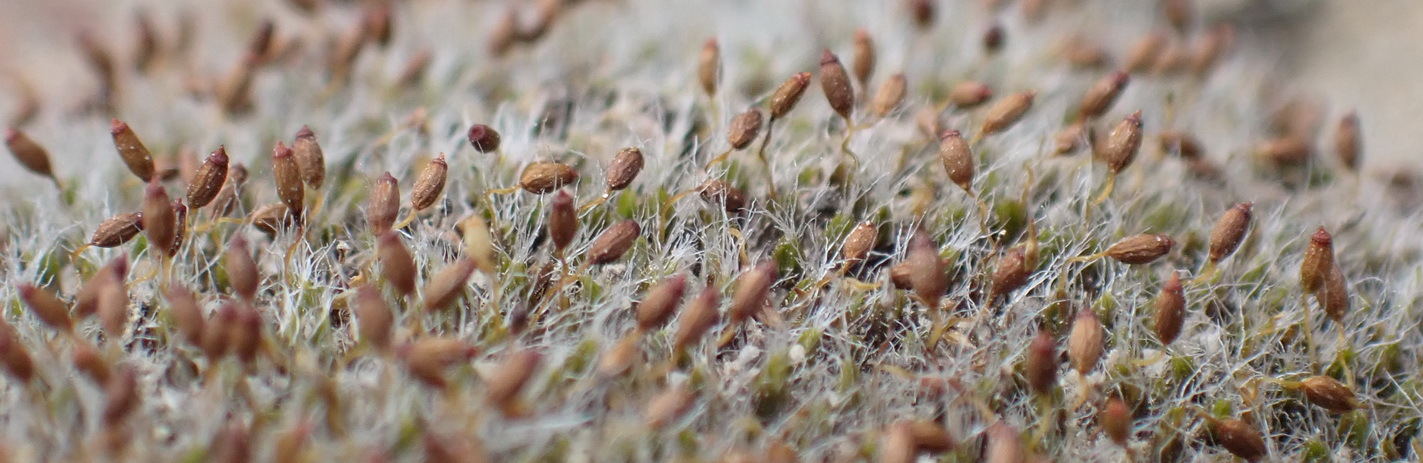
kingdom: Plantae
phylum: Bryophyta
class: Bryopsida
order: Grimmiales
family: Grimmiaceae
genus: Grimmia
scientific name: Grimmia pulvinata
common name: Grey-cushioned grimmia
